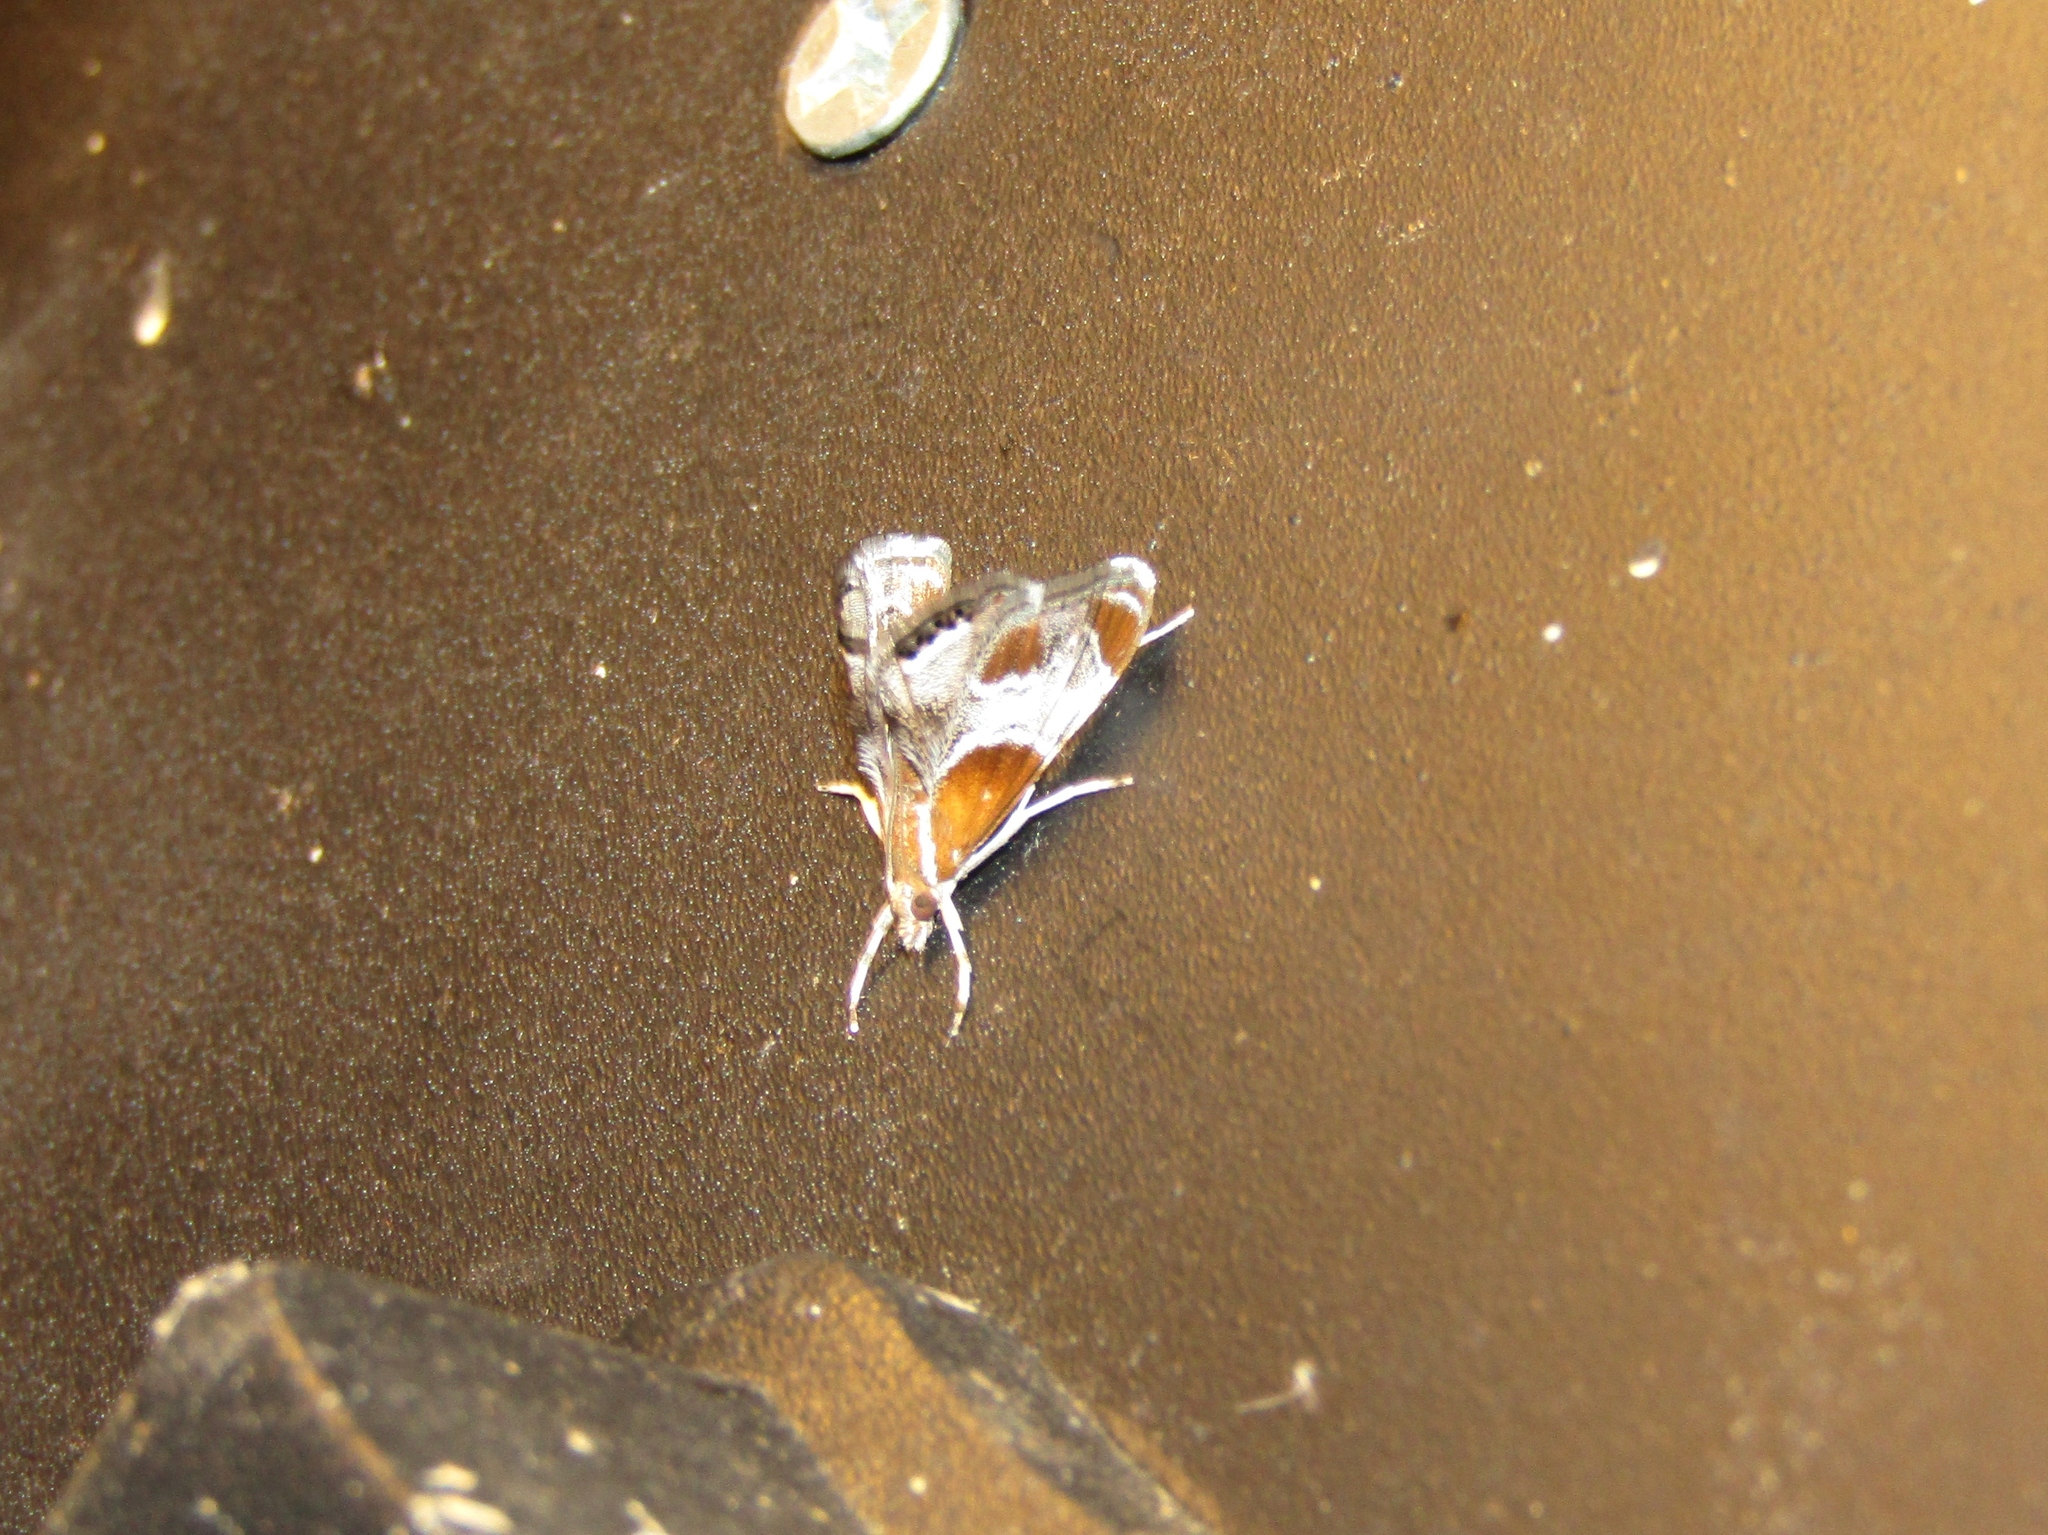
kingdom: Animalia
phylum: Arthropoda
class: Insecta
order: Lepidoptera
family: Crambidae
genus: Chalcoela
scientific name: Chalcoela pegasalis
